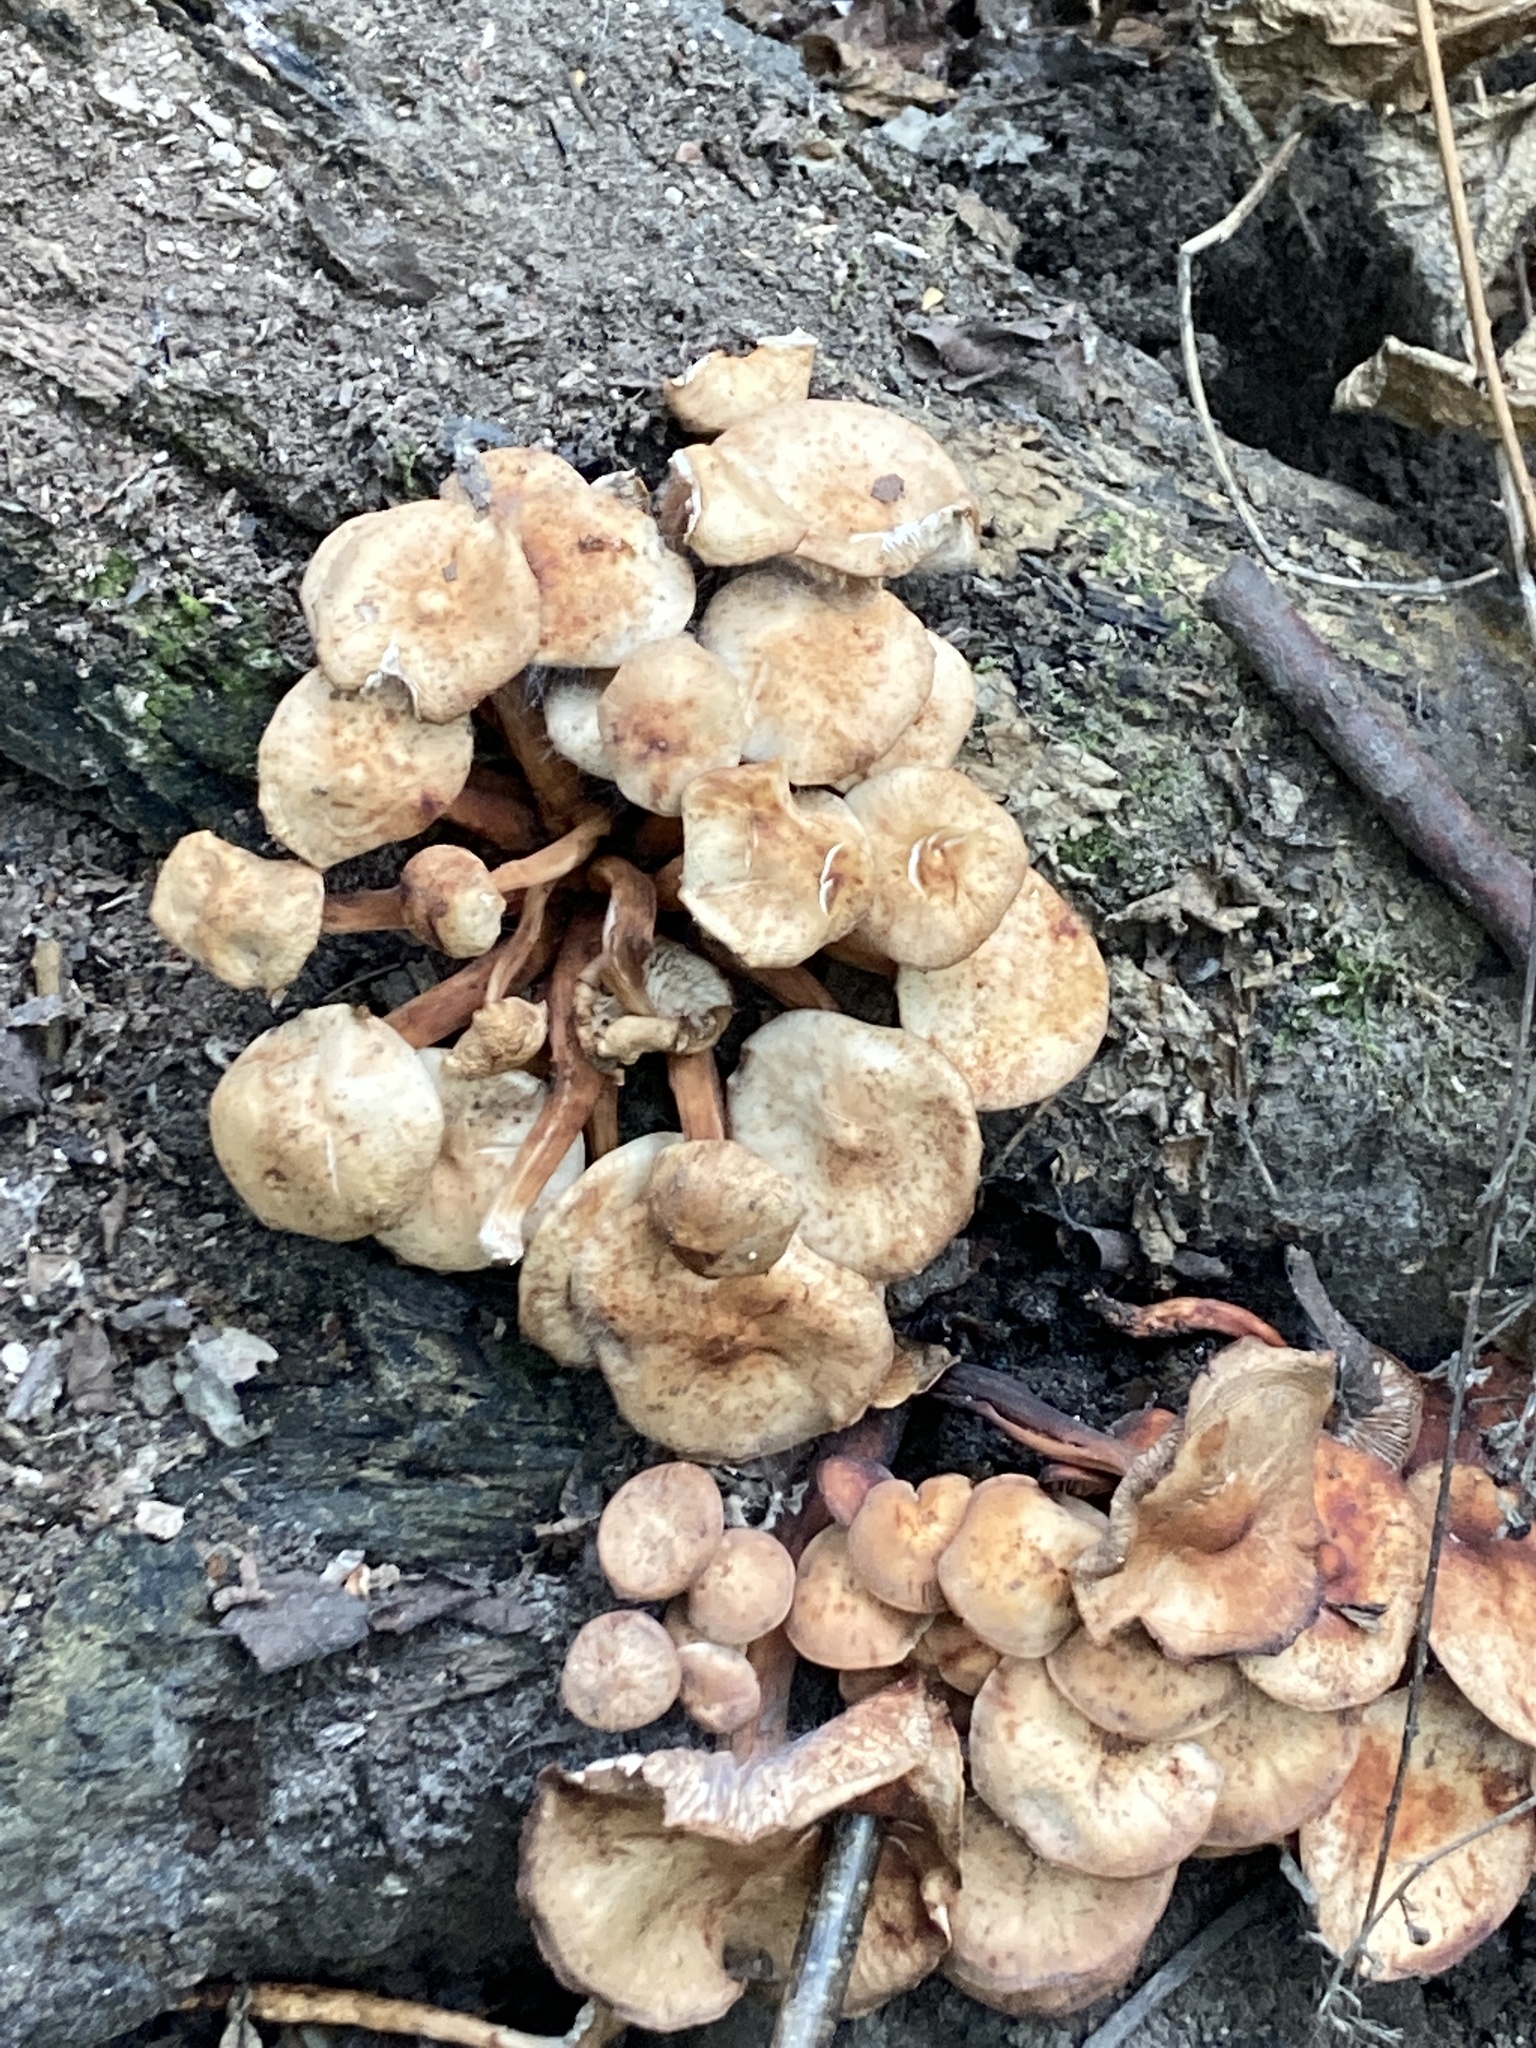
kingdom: Fungi
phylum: Basidiomycota
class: Agaricomycetes
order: Agaricales
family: Omphalotaceae
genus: Gymnopus
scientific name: Gymnopus fusipes
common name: Spindle shank
